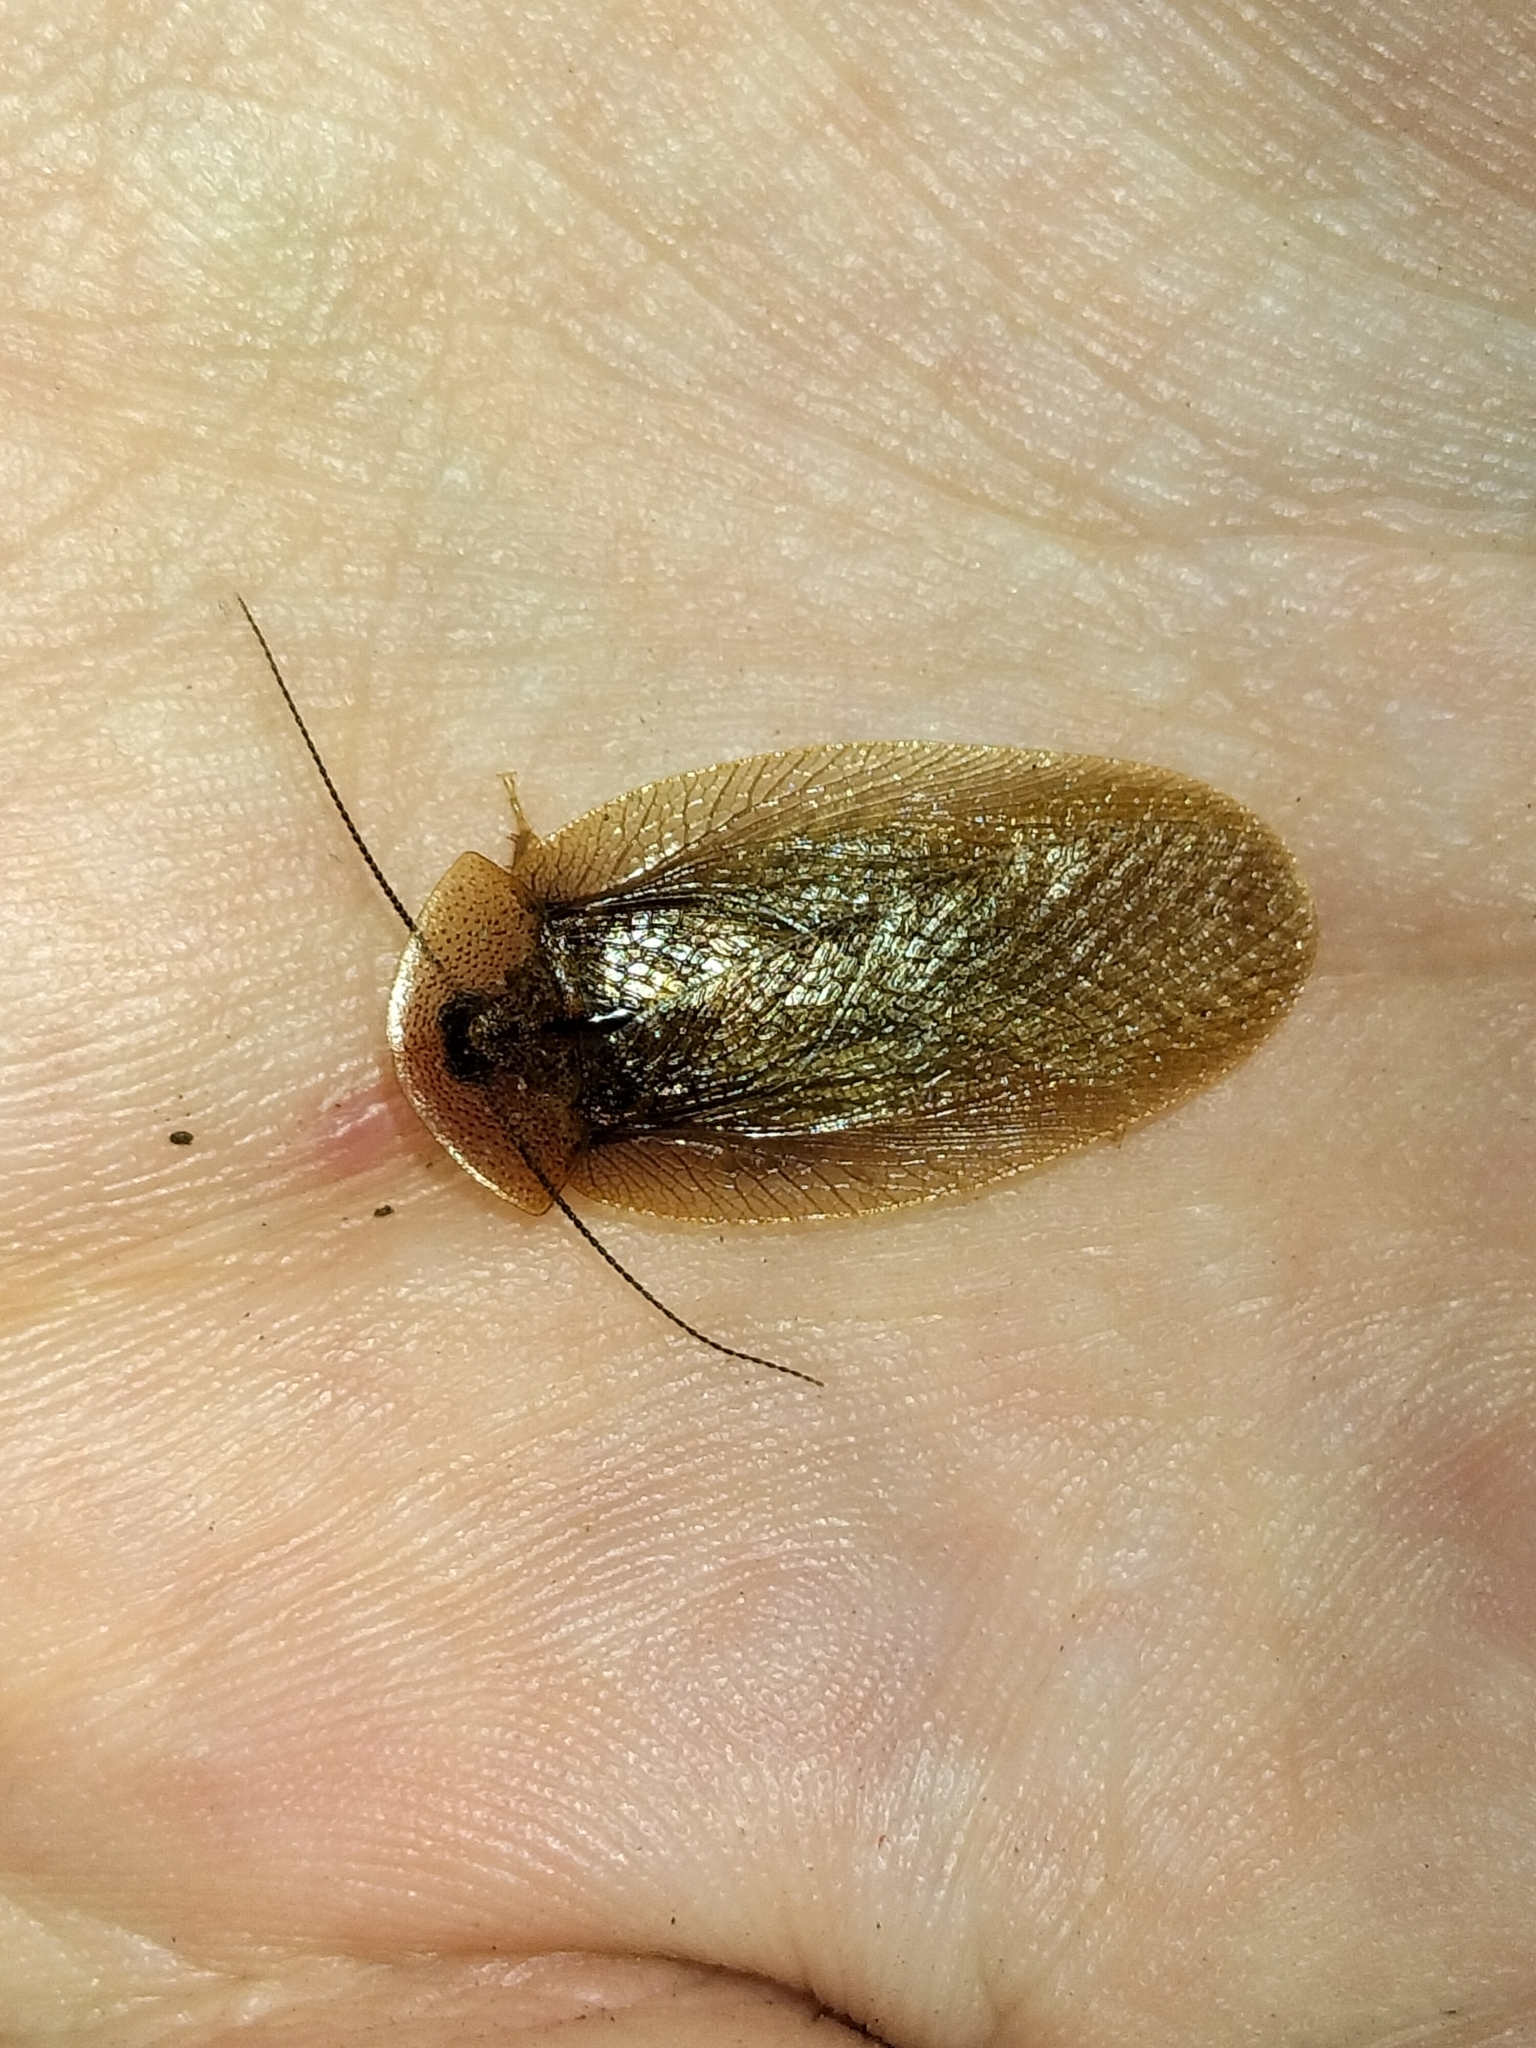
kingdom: Animalia
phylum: Arthropoda
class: Insecta
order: Blattodea
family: Blaberidae
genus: Neolaxta
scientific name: Neolaxta triangulifera
